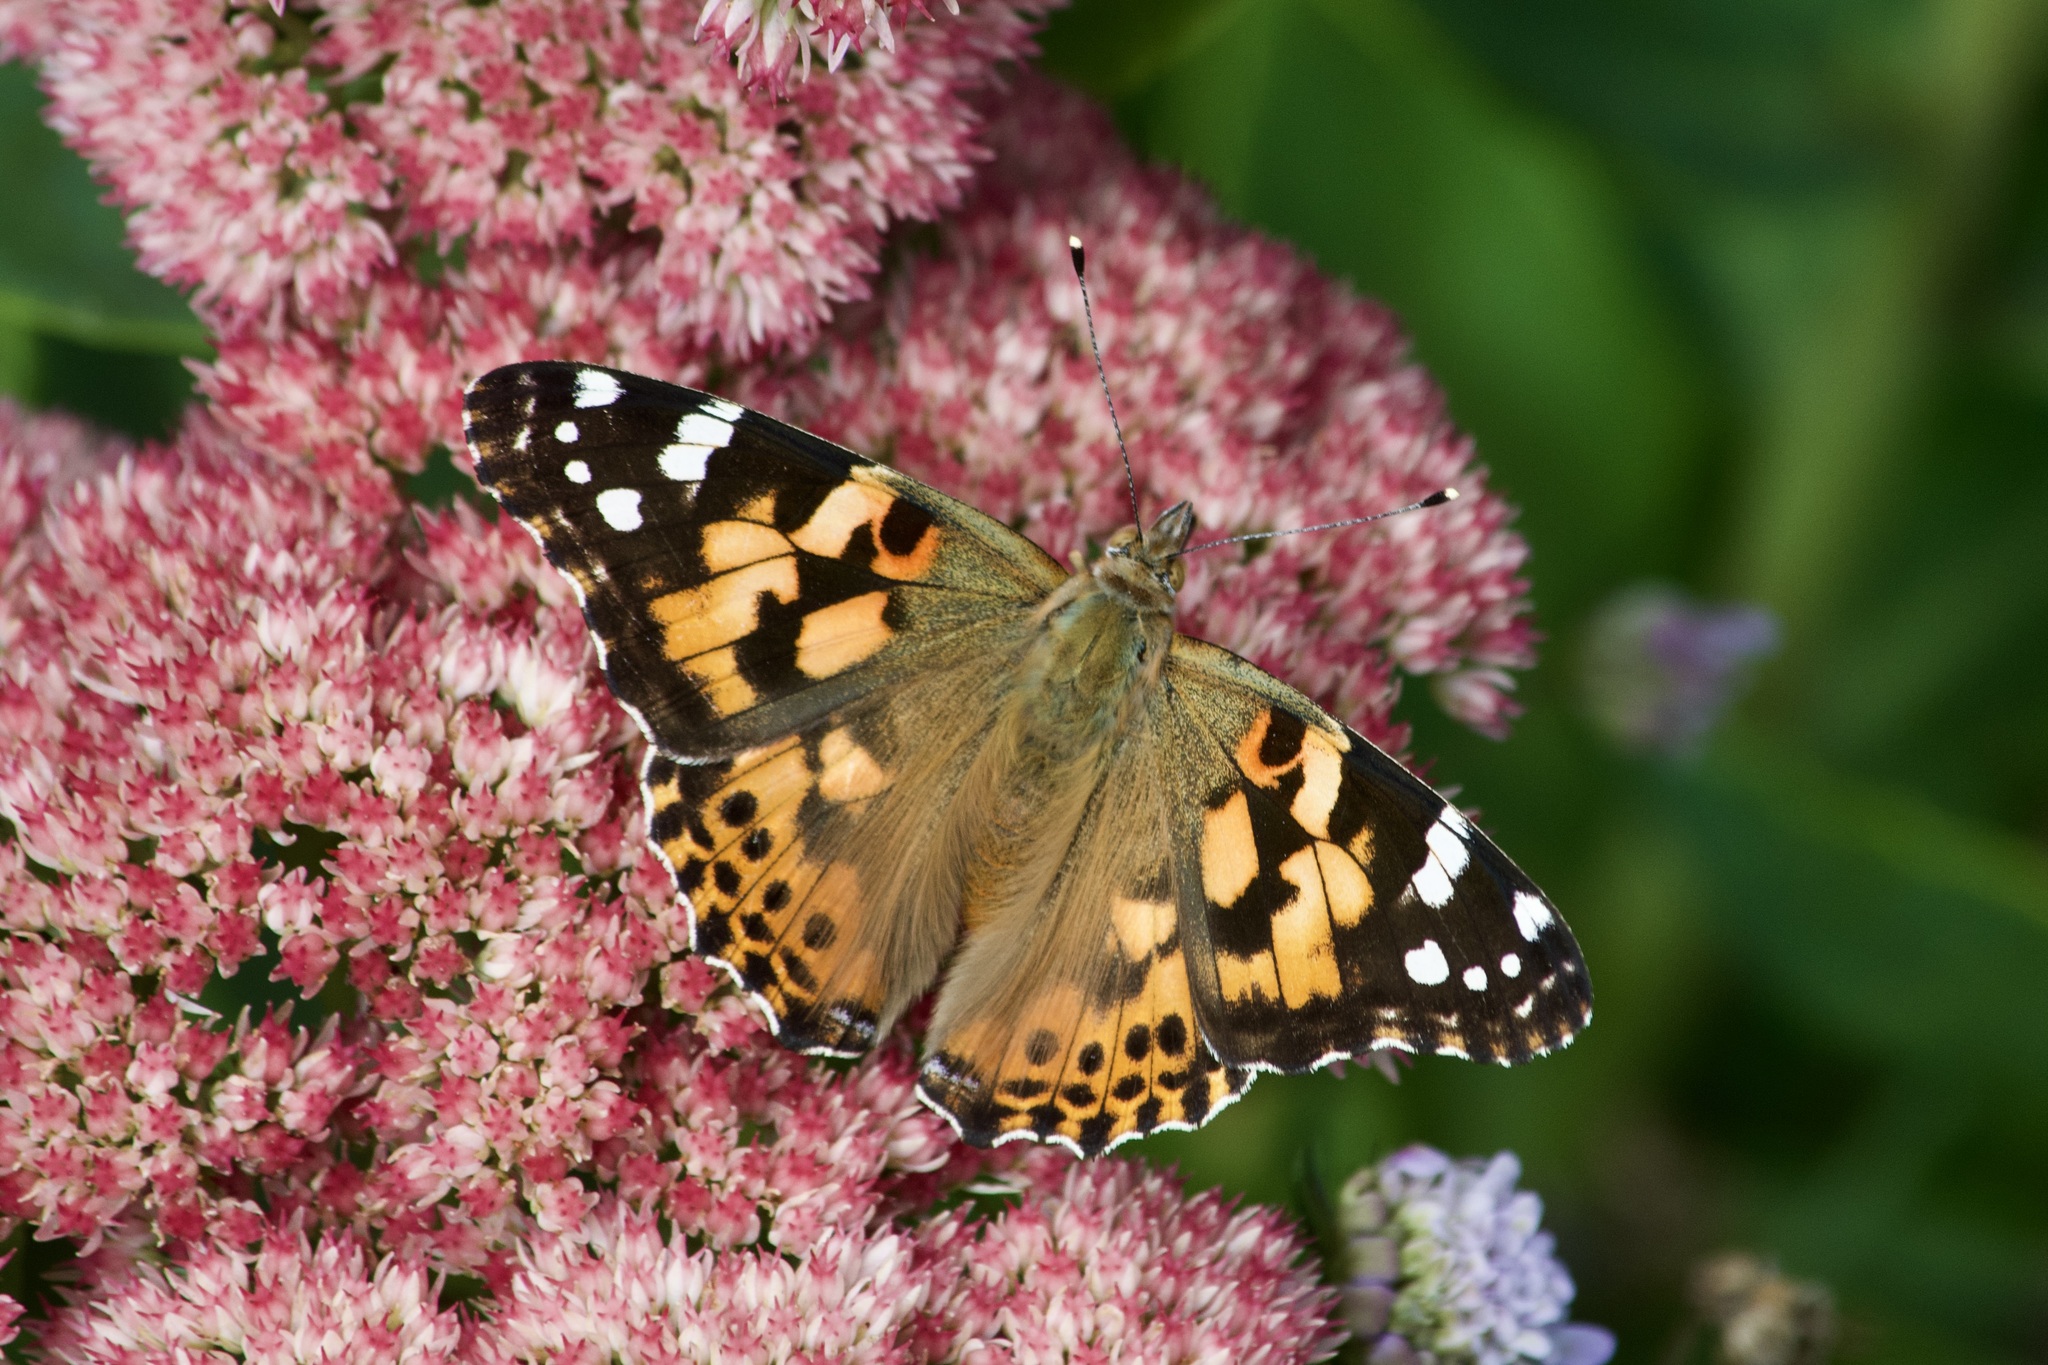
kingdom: Animalia
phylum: Arthropoda
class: Insecta
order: Lepidoptera
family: Nymphalidae
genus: Vanessa
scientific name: Vanessa cardui
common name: Painted lady
